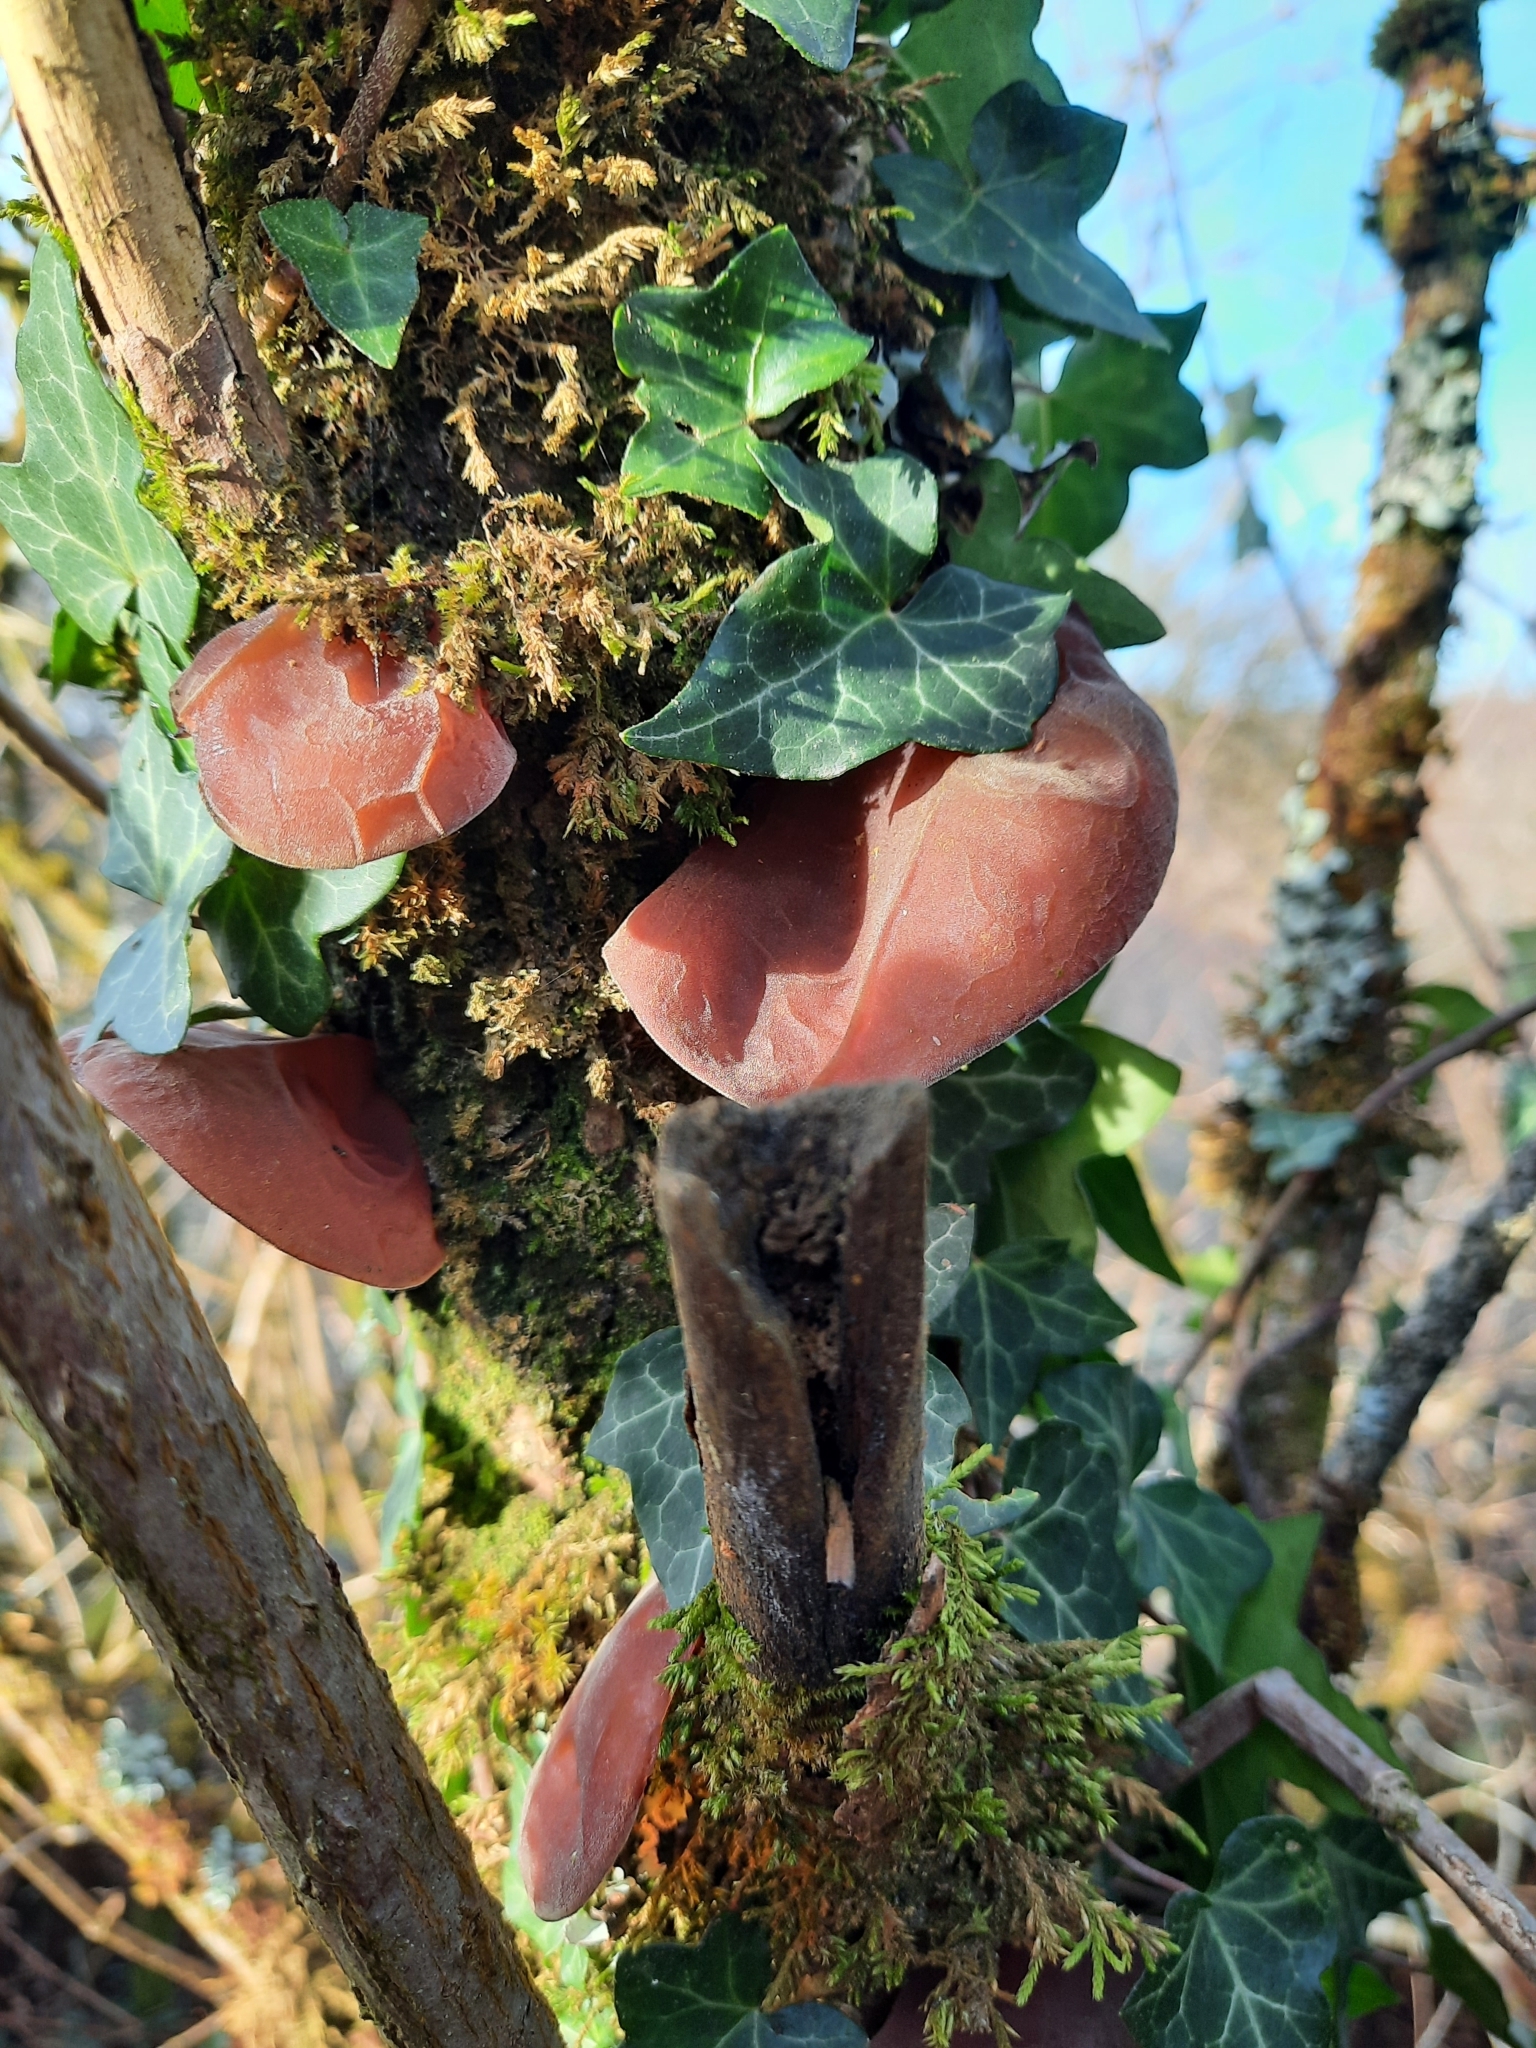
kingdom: Fungi
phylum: Basidiomycota
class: Agaricomycetes
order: Auriculariales
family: Auriculariaceae
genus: Auricularia
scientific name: Auricularia auricula-judae
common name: Jelly ear
